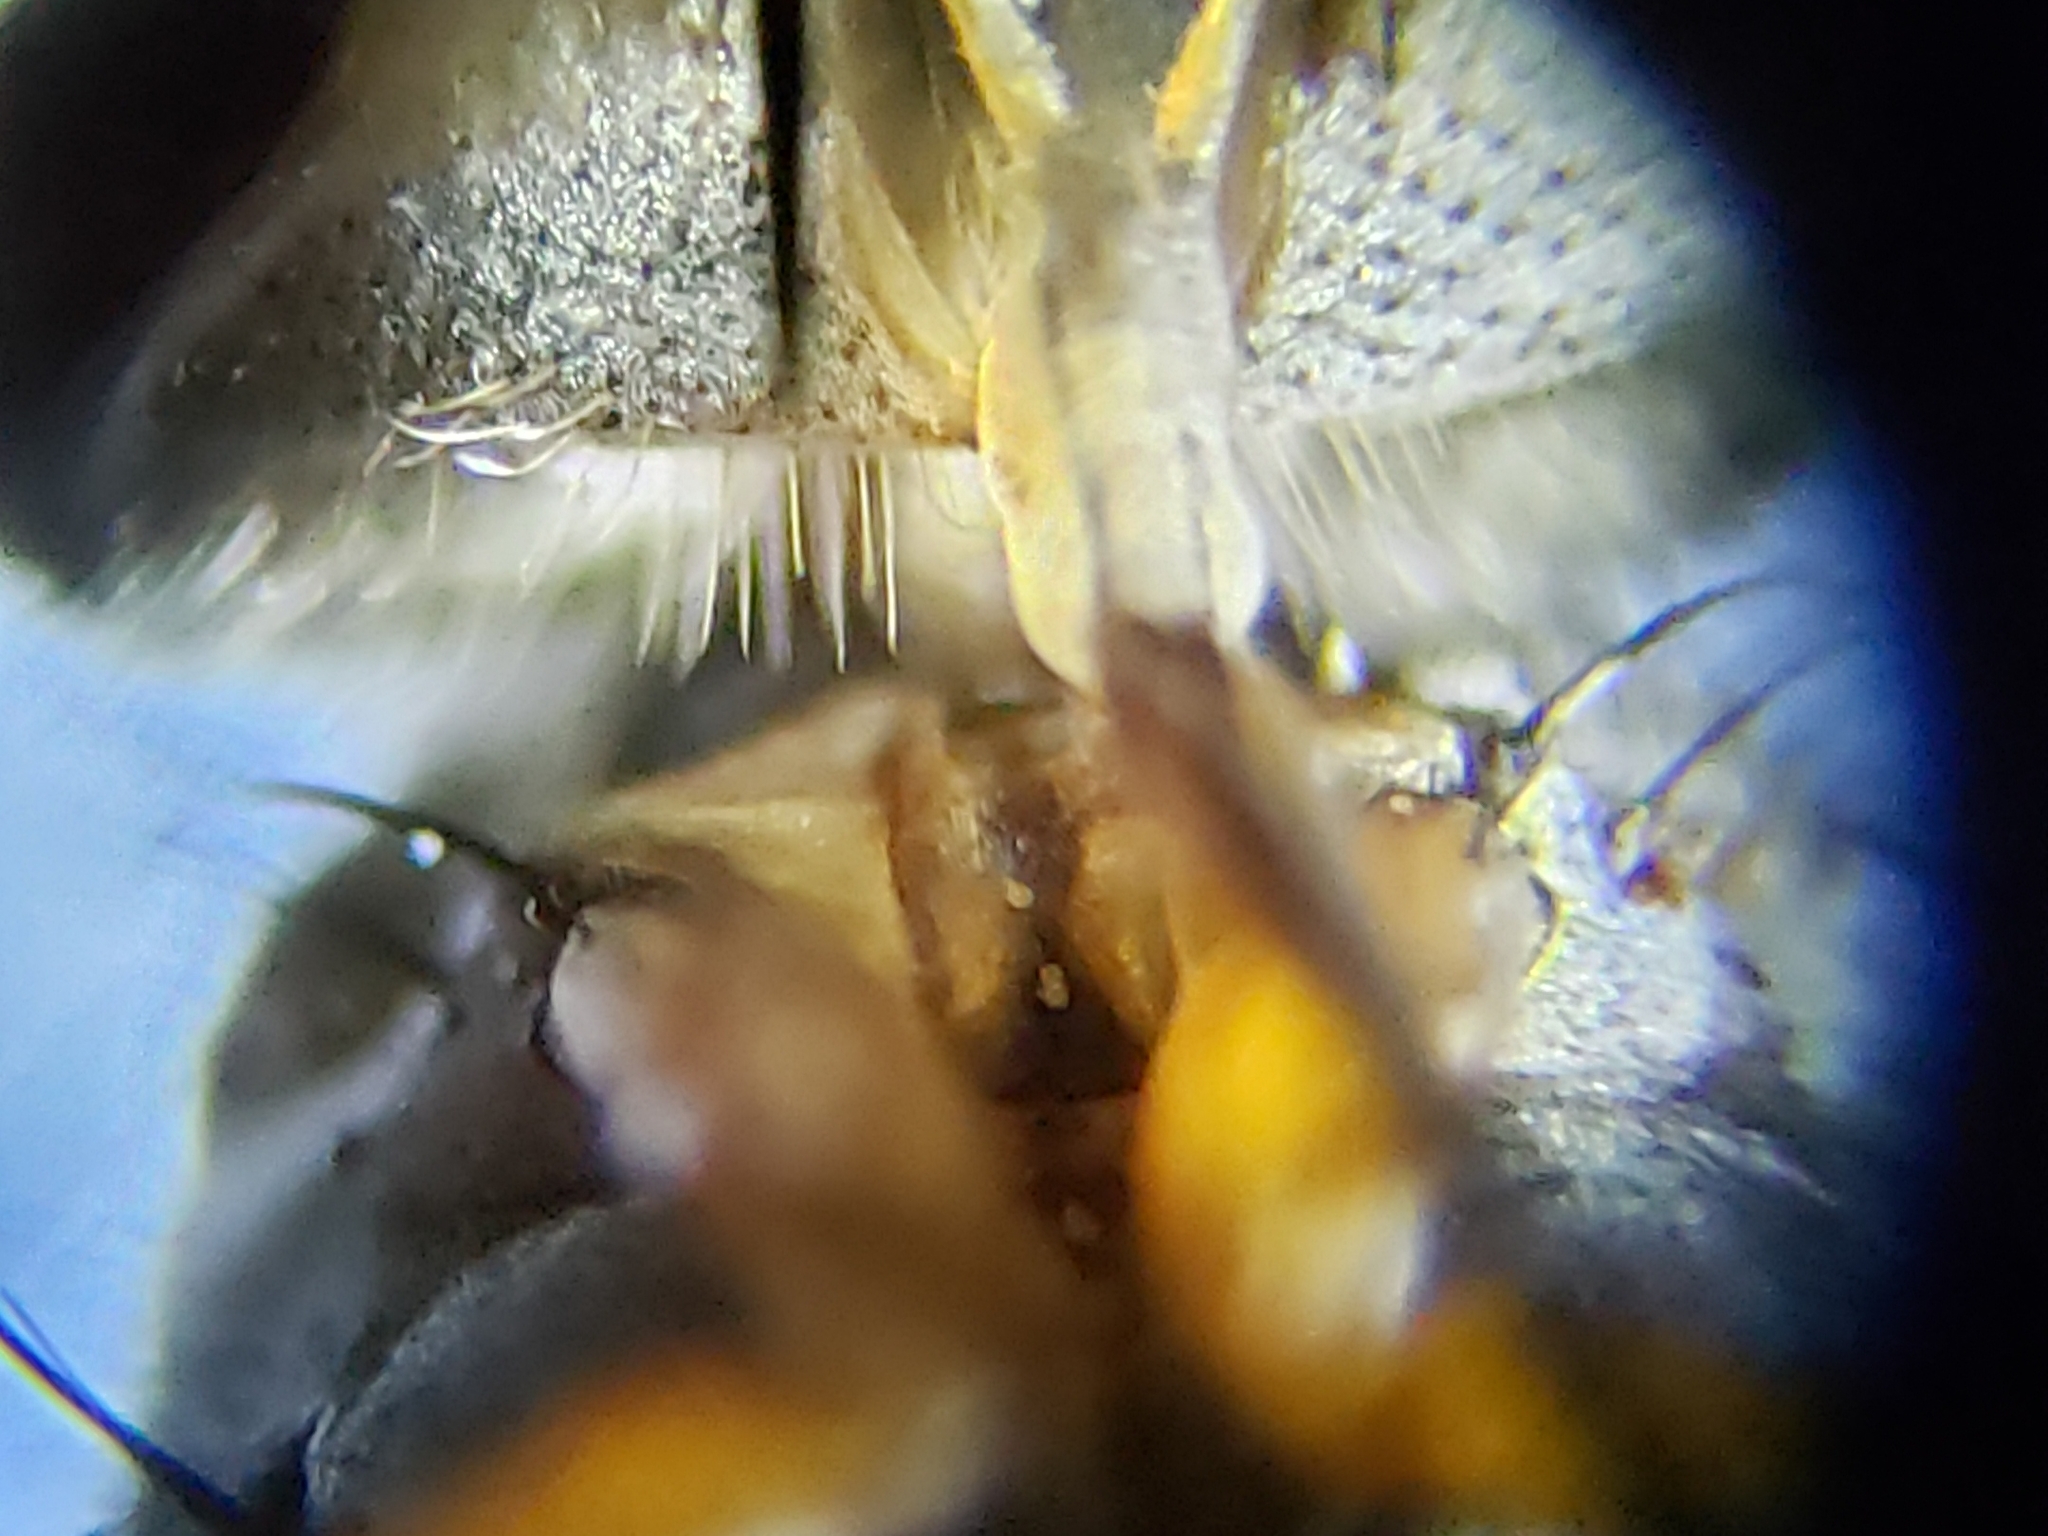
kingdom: Animalia
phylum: Arthropoda
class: Insecta
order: Diptera
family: Tachinidae
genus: Prosenoides
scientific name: Prosenoides flavipes
